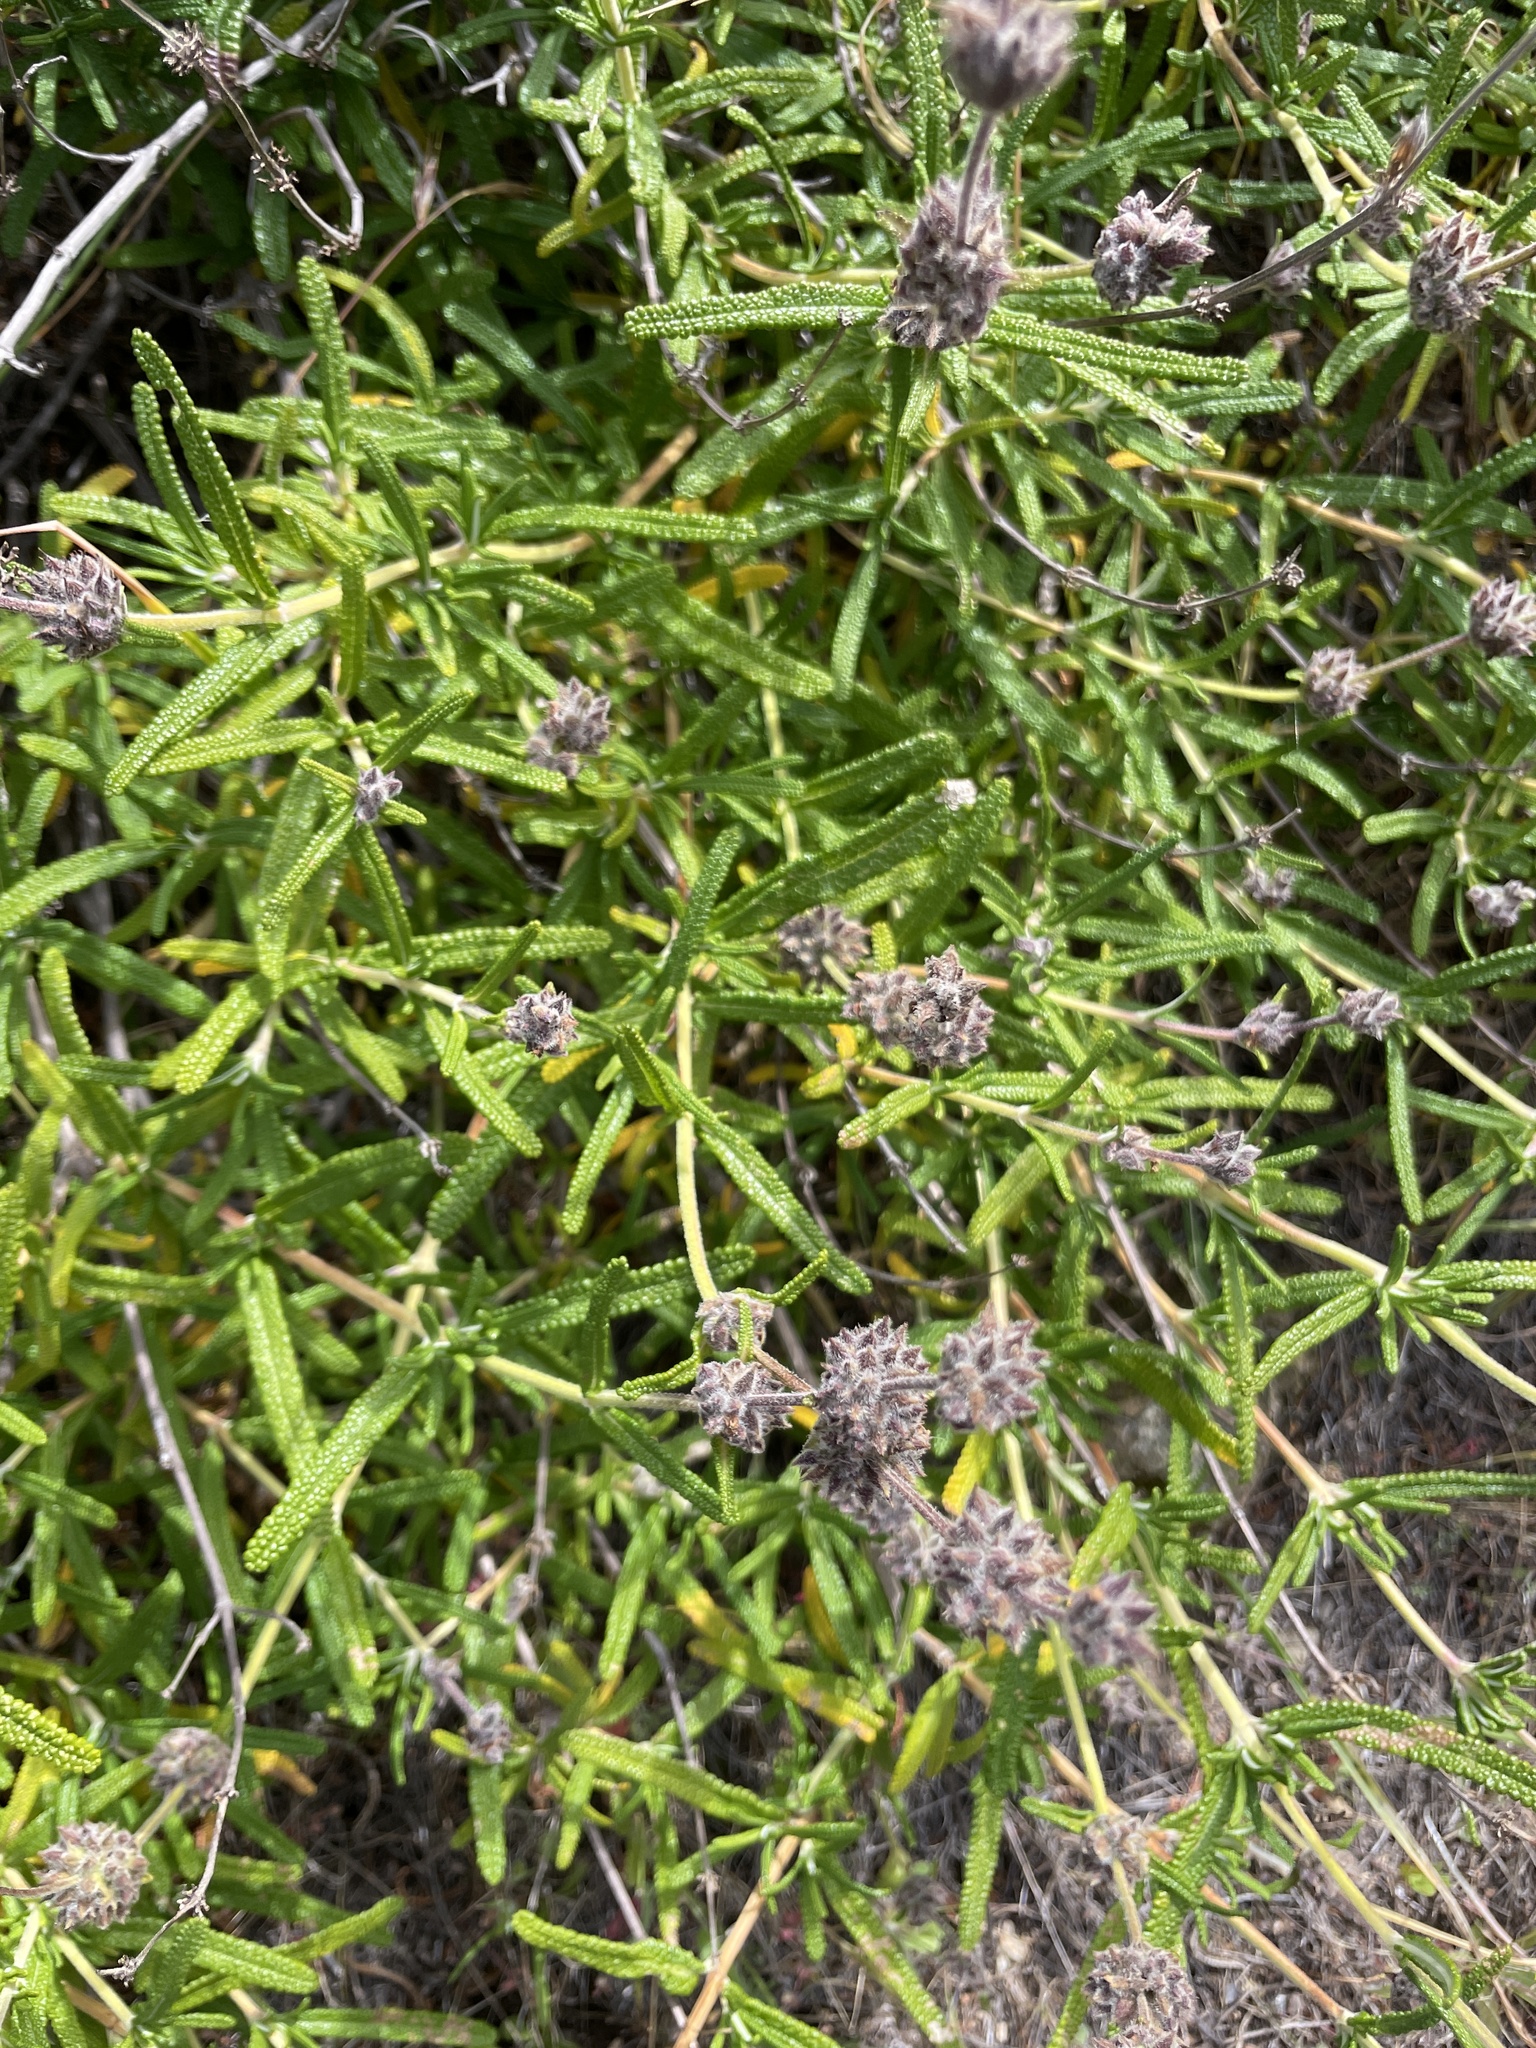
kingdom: Plantae
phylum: Tracheophyta
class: Magnoliopsida
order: Lamiales
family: Lamiaceae
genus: Salvia
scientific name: Salvia brandegeei
